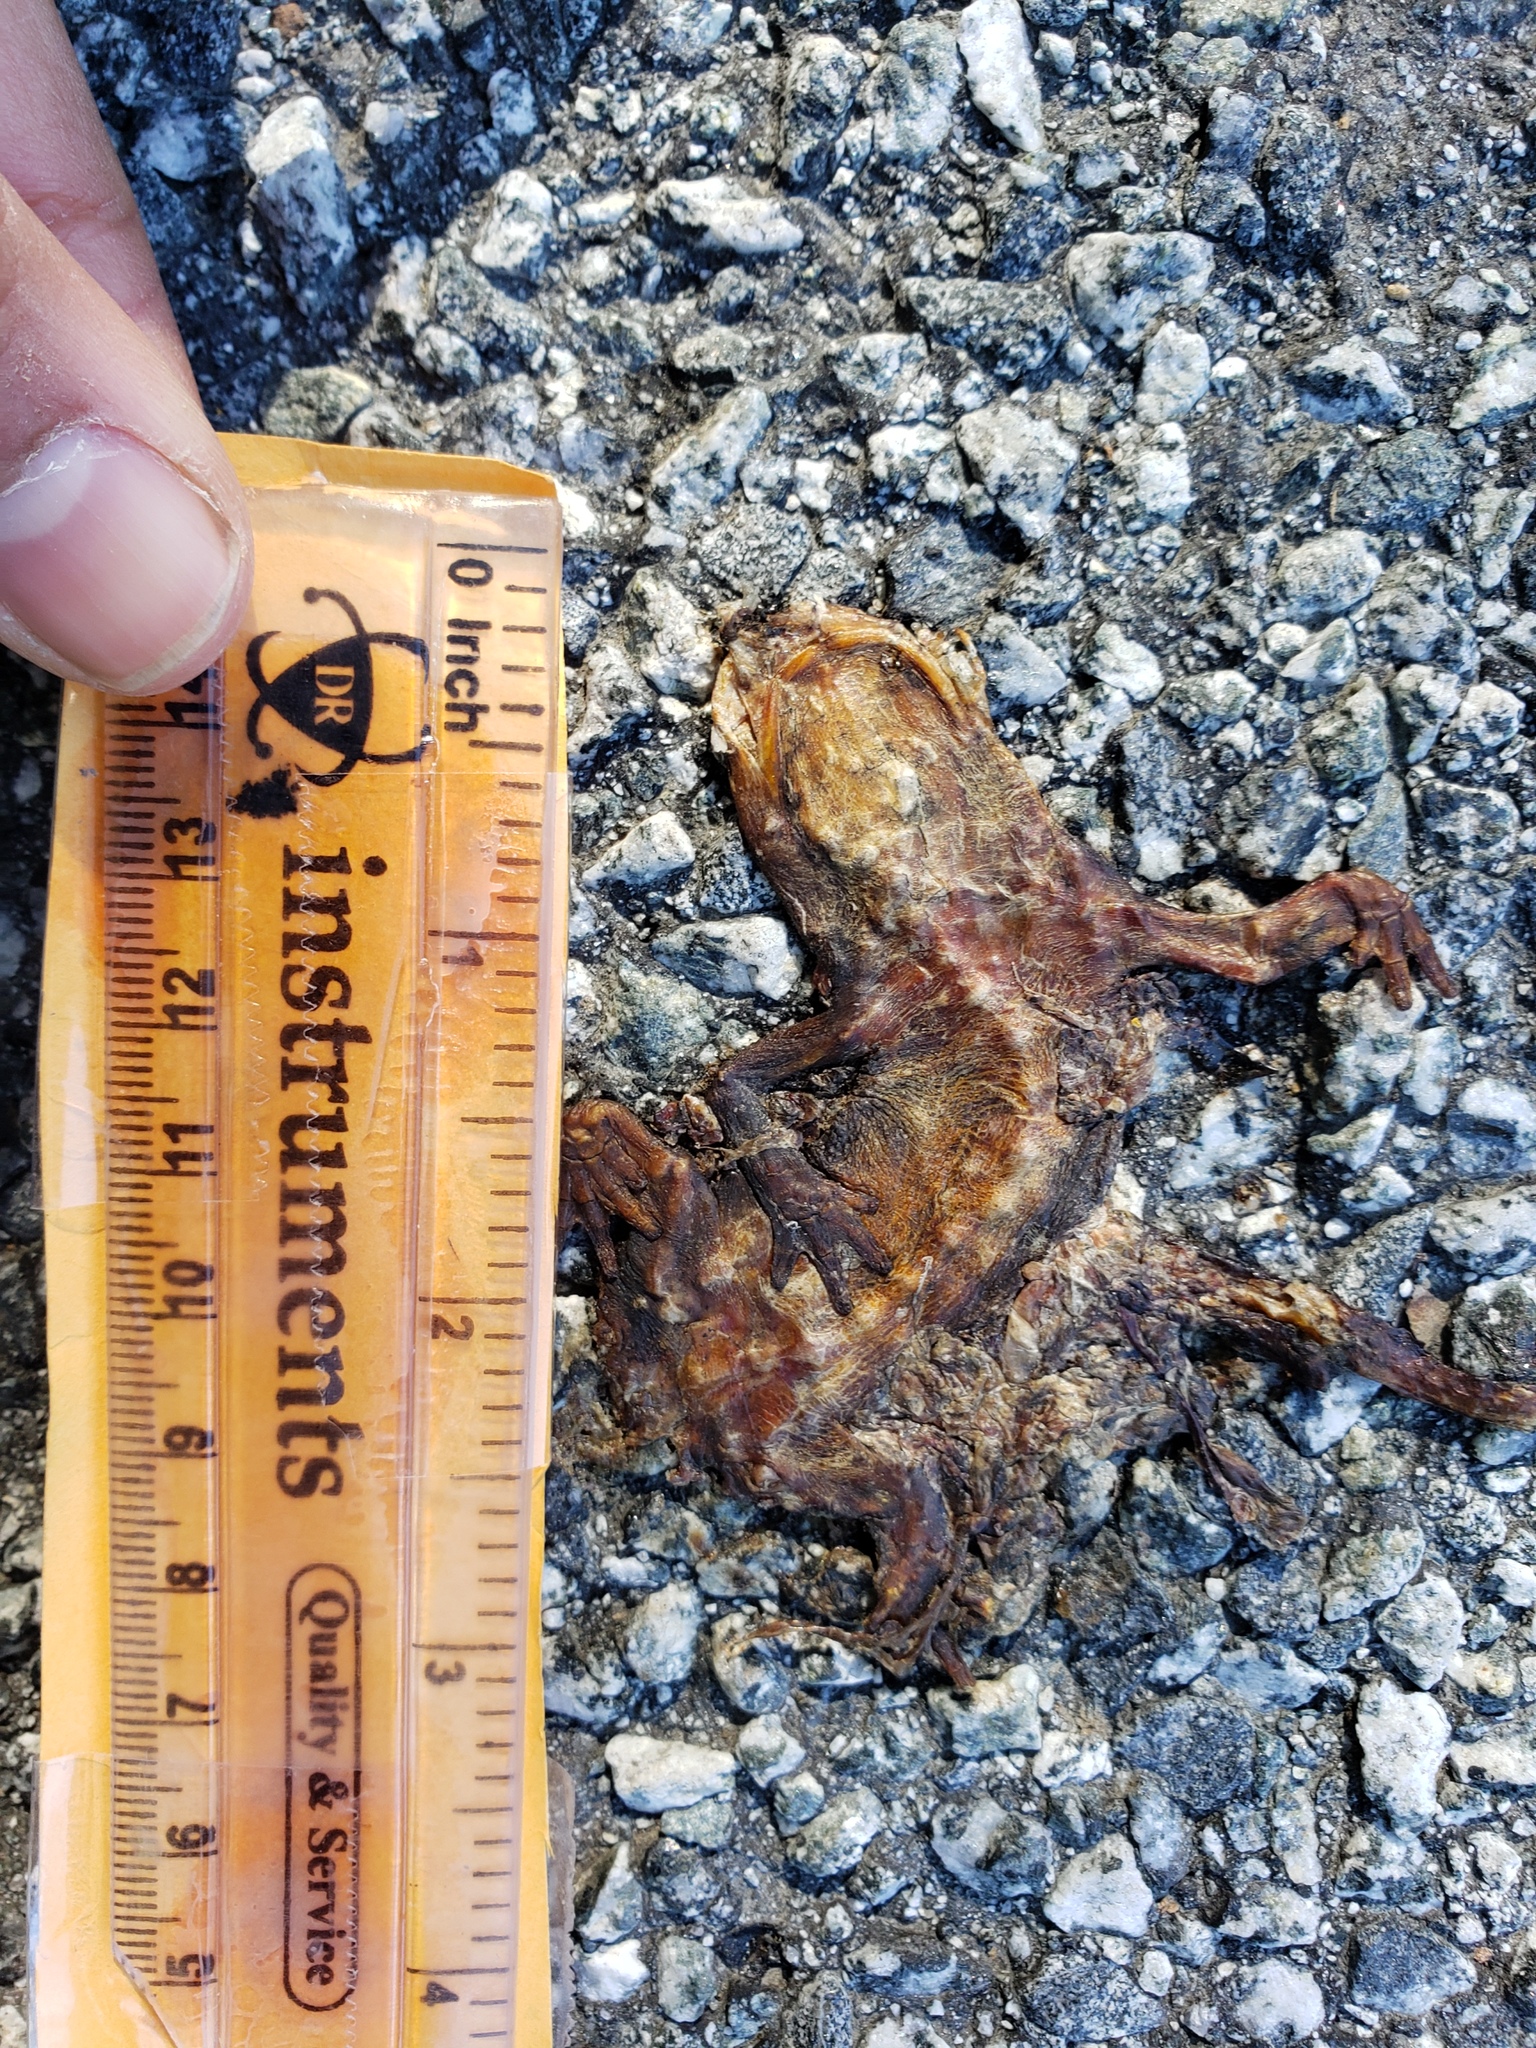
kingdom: Animalia
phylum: Chordata
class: Amphibia
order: Caudata
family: Salamandridae
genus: Taricha
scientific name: Taricha
